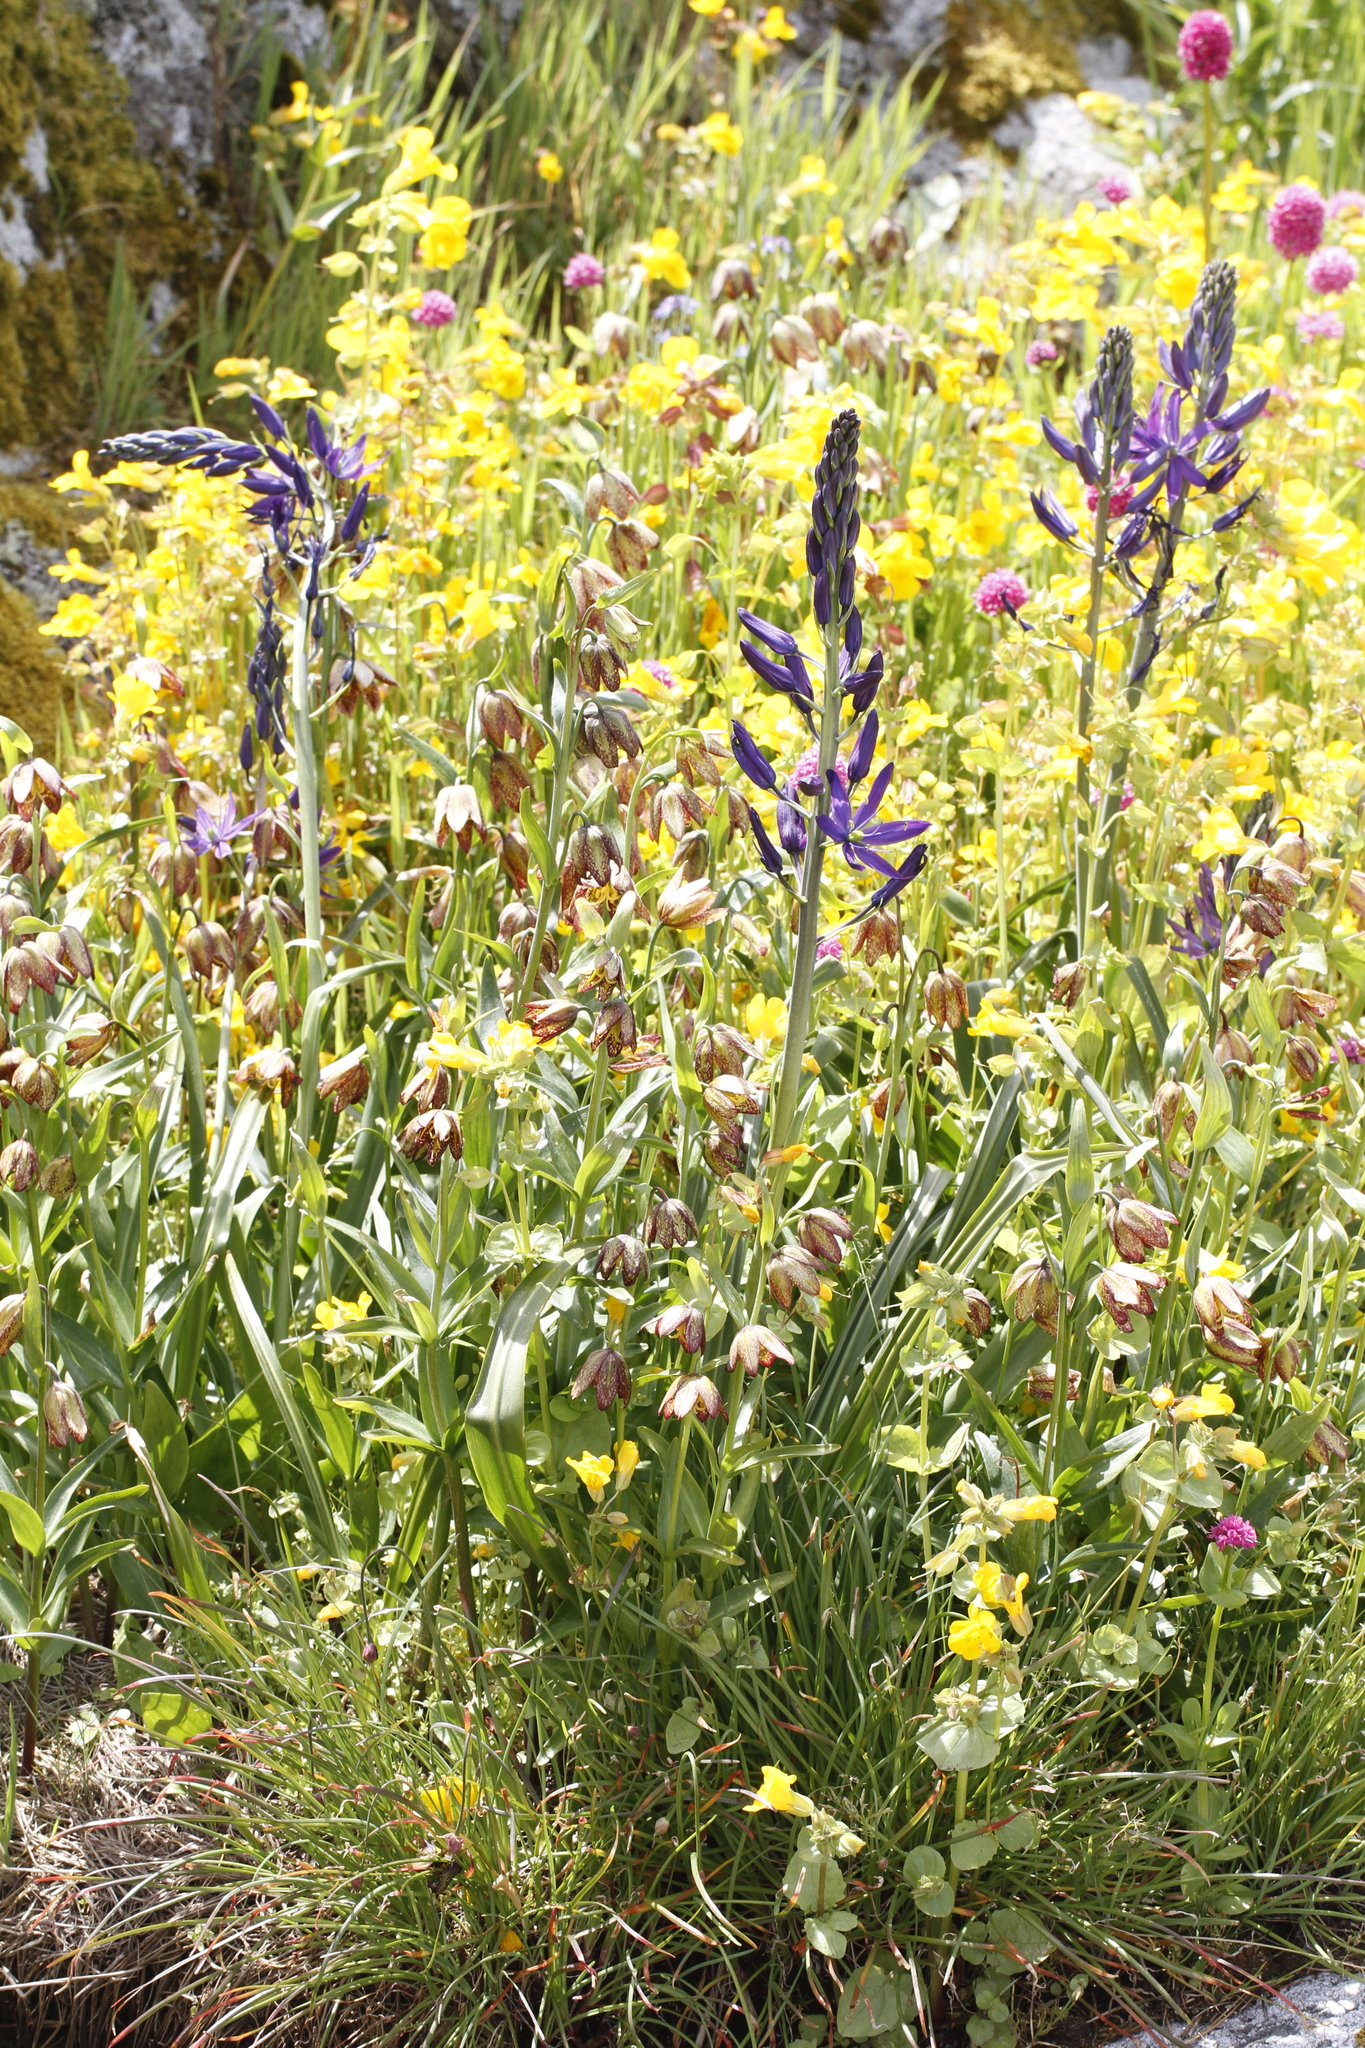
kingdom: Plantae
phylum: Tracheophyta
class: Liliopsida
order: Asparagales
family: Asparagaceae
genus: Camassia
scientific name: Camassia leichtlinii
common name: Leichtlin's camas
